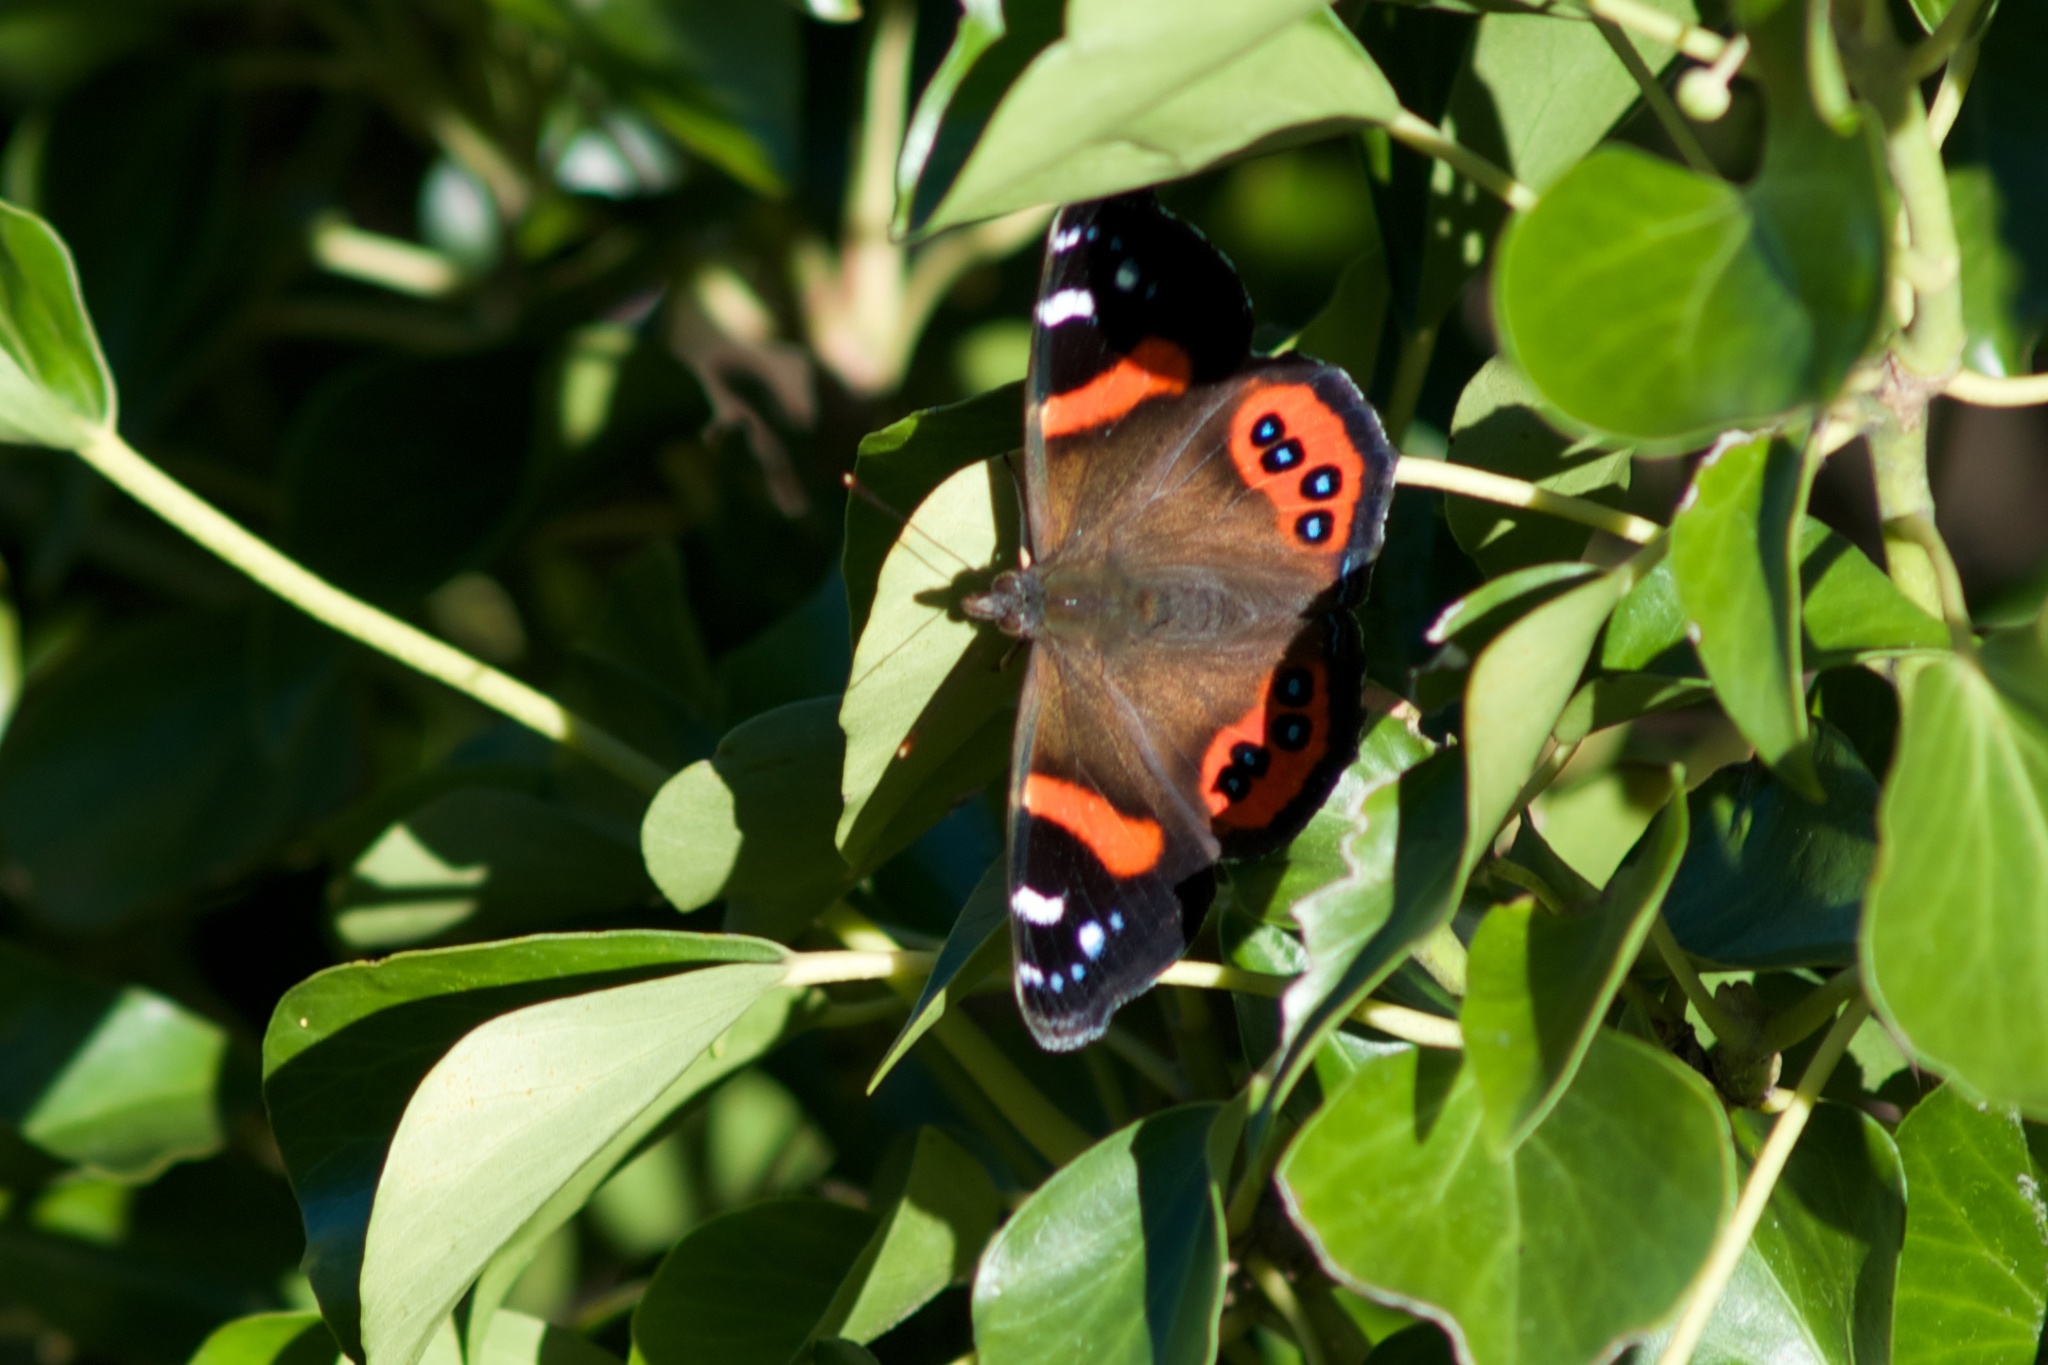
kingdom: Animalia
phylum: Arthropoda
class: Insecta
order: Lepidoptera
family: Nymphalidae
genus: Vanessa
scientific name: Vanessa gonerilla
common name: New zealand red admiral
